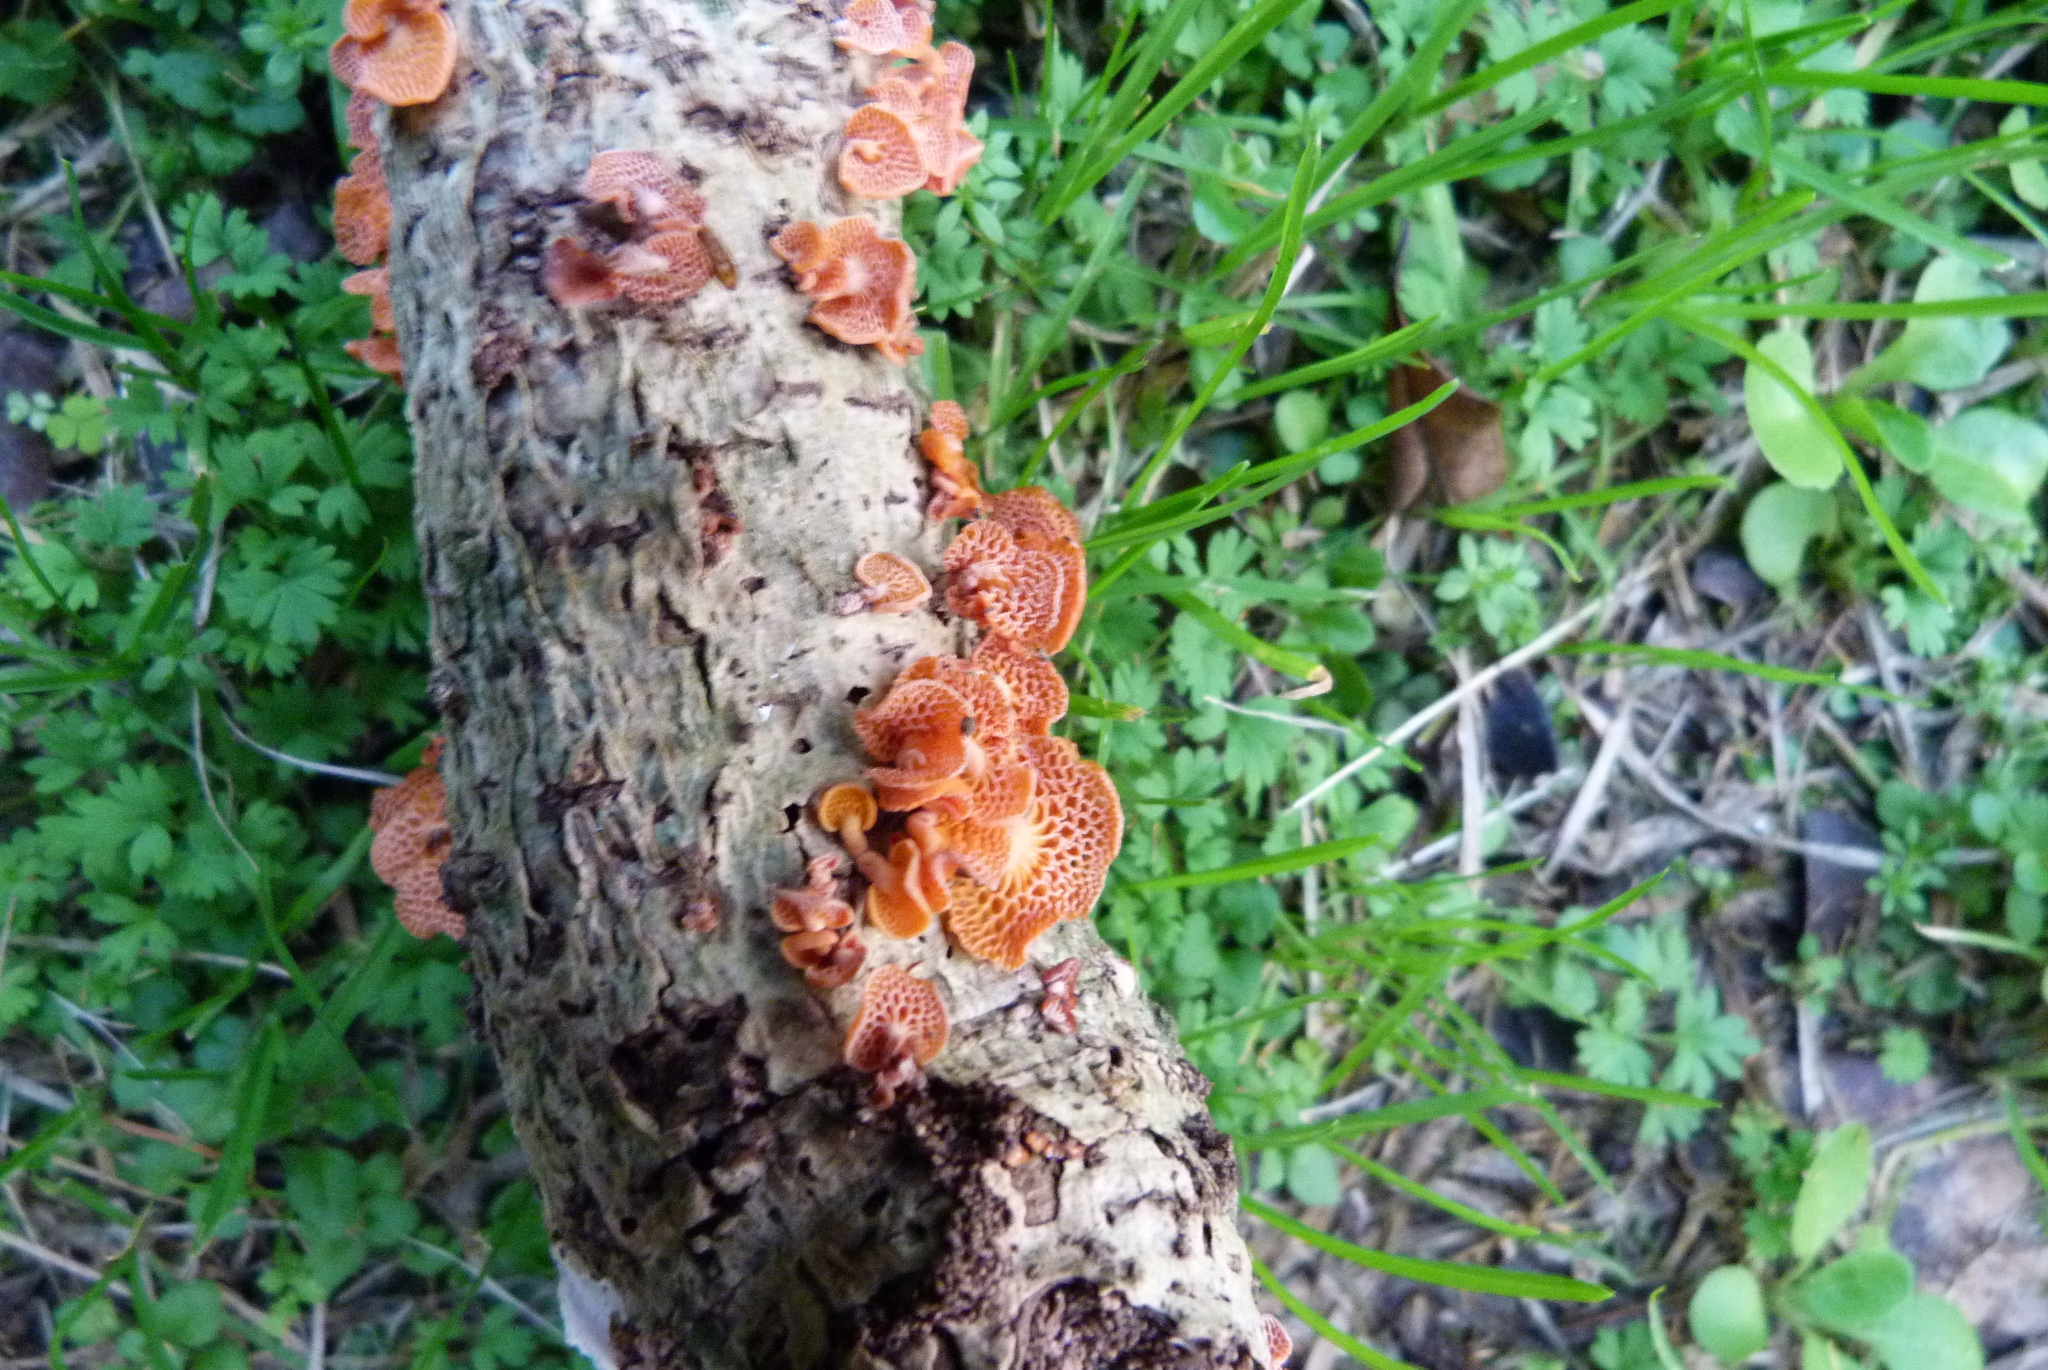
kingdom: Fungi
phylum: Basidiomycota
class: Agaricomycetes
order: Agaricales
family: Mycenaceae
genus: Favolaschia
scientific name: Favolaschia claudopus
